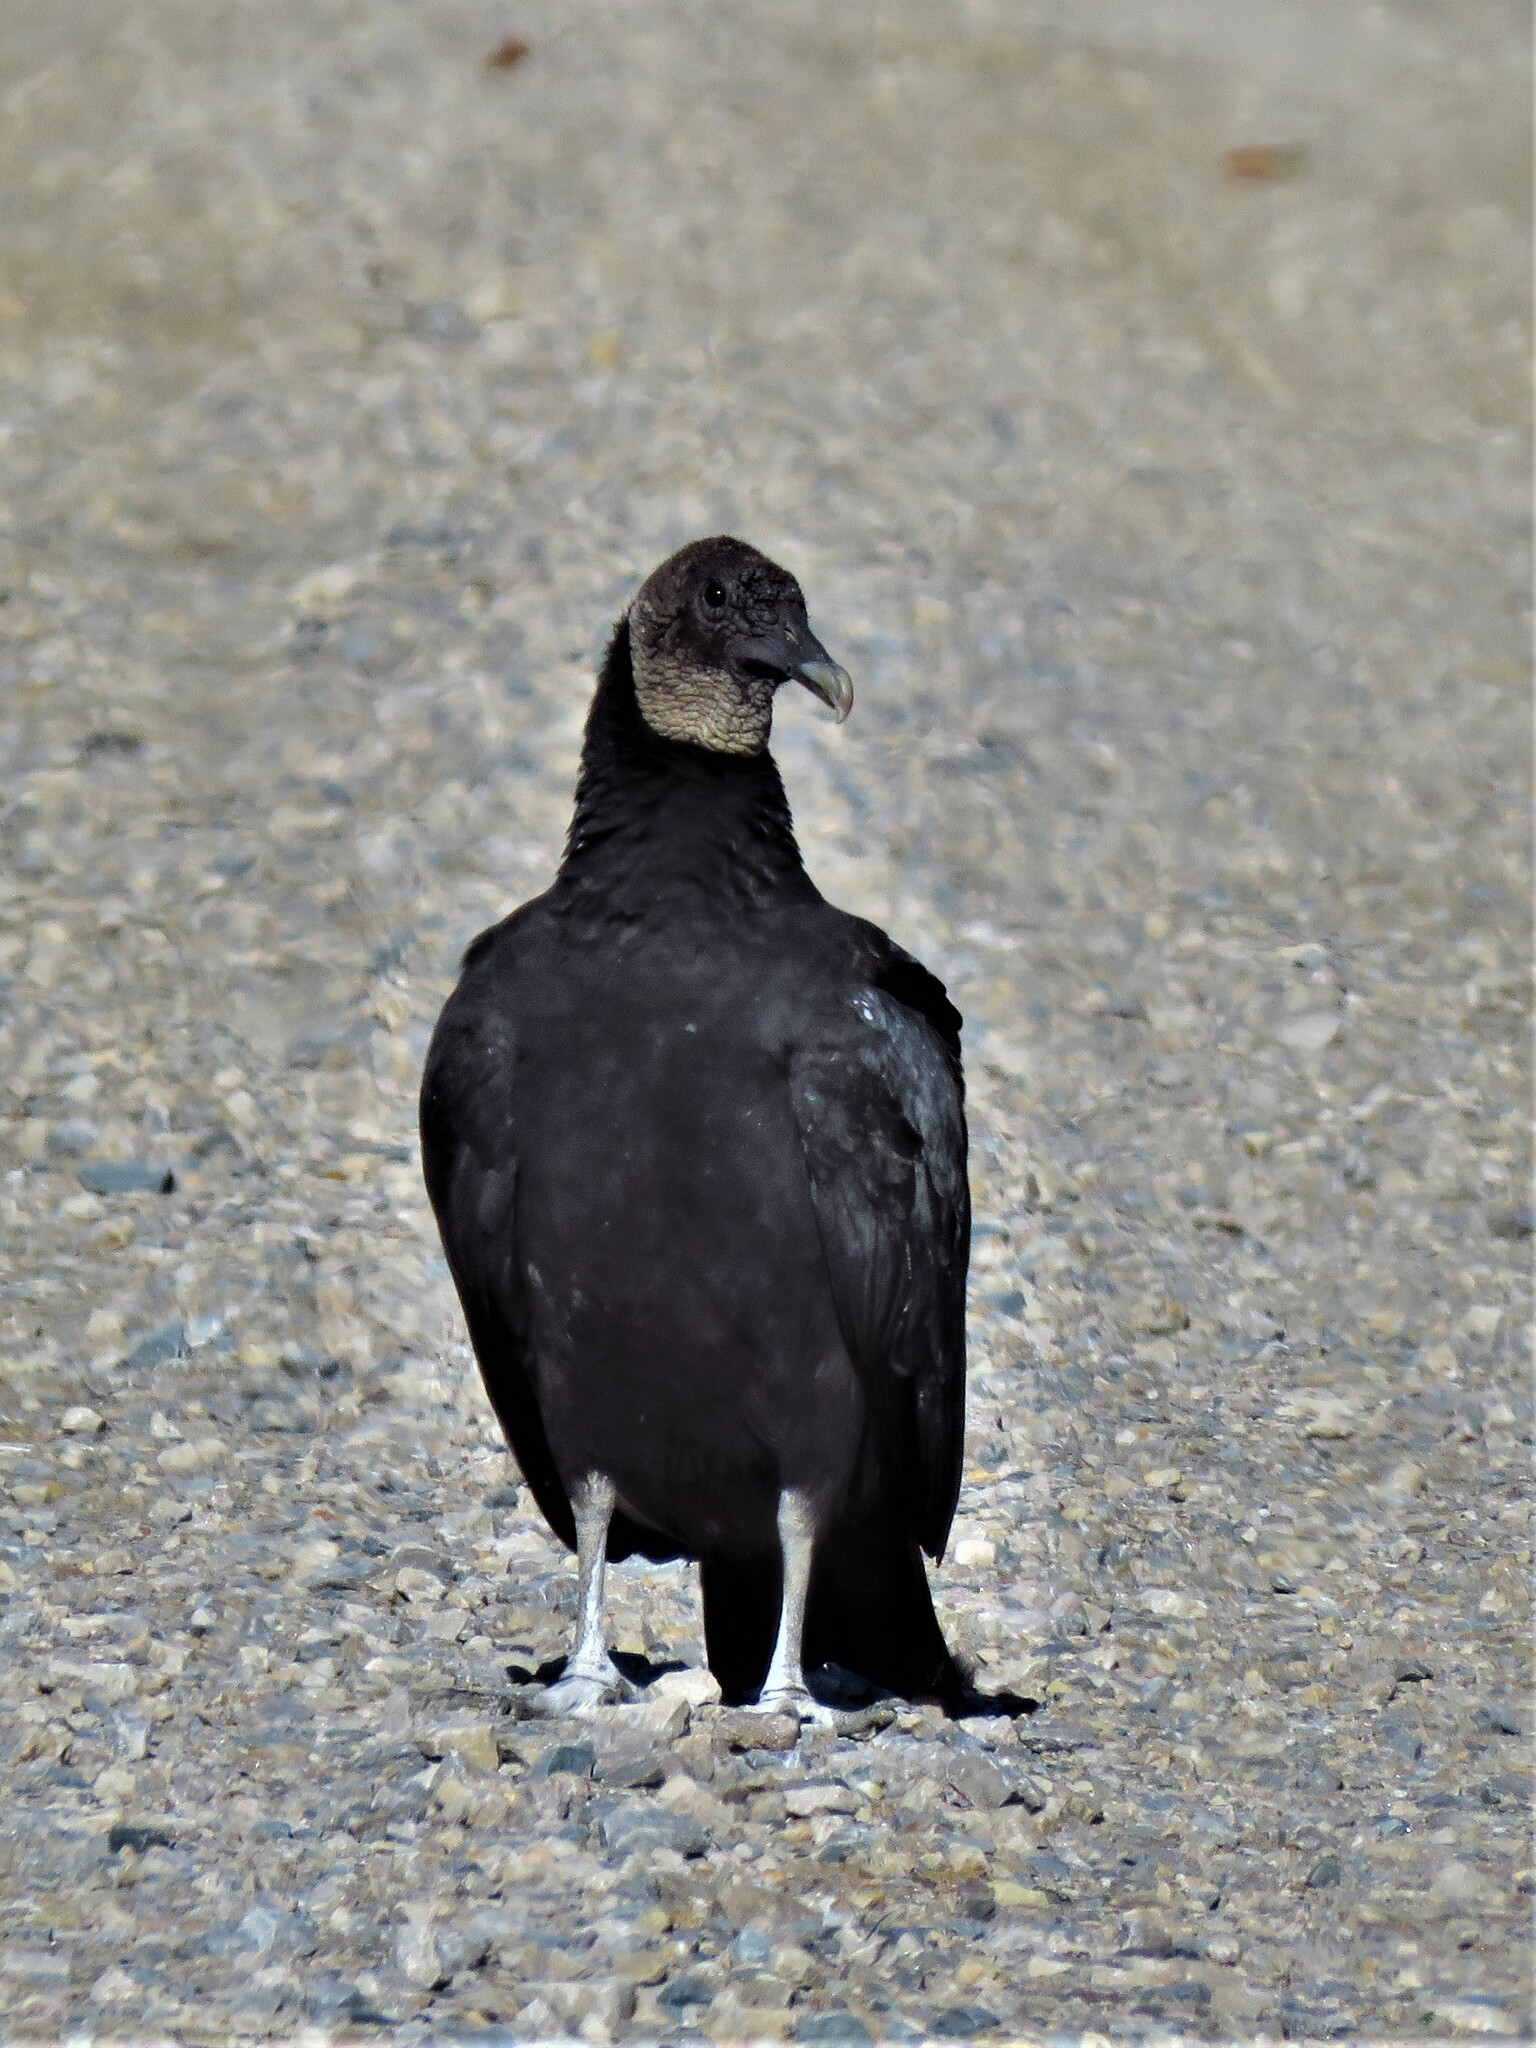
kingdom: Animalia
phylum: Chordata
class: Aves
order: Accipitriformes
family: Cathartidae
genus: Coragyps
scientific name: Coragyps atratus
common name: Black vulture
